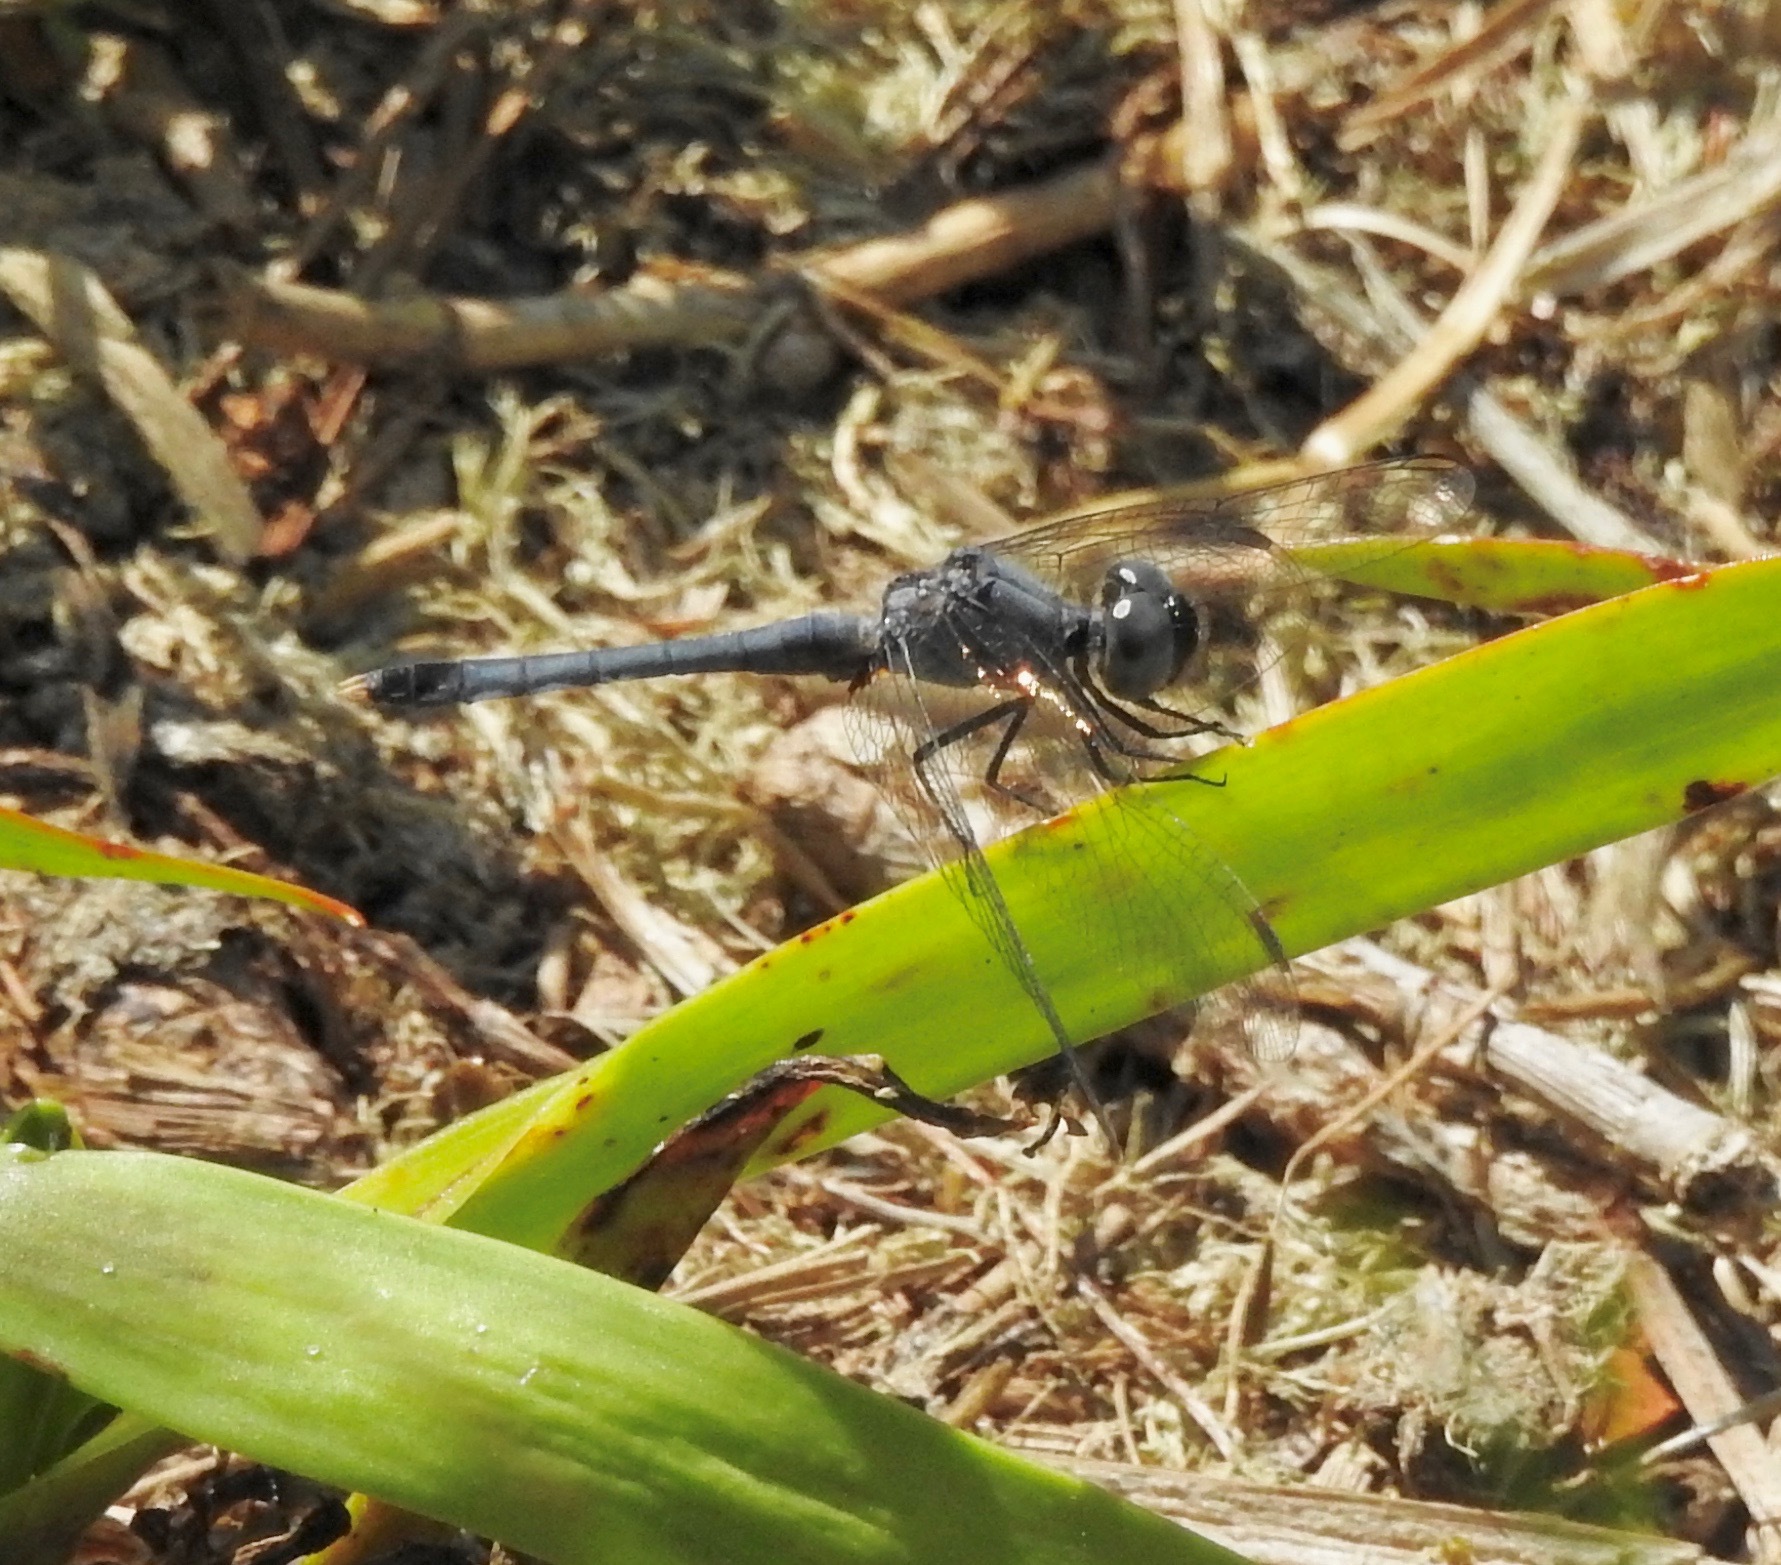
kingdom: Animalia
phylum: Arthropoda
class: Insecta
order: Odonata
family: Libellulidae
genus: Erythrodiplax
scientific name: Erythrodiplax minuscula
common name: Little blue dragonlet
